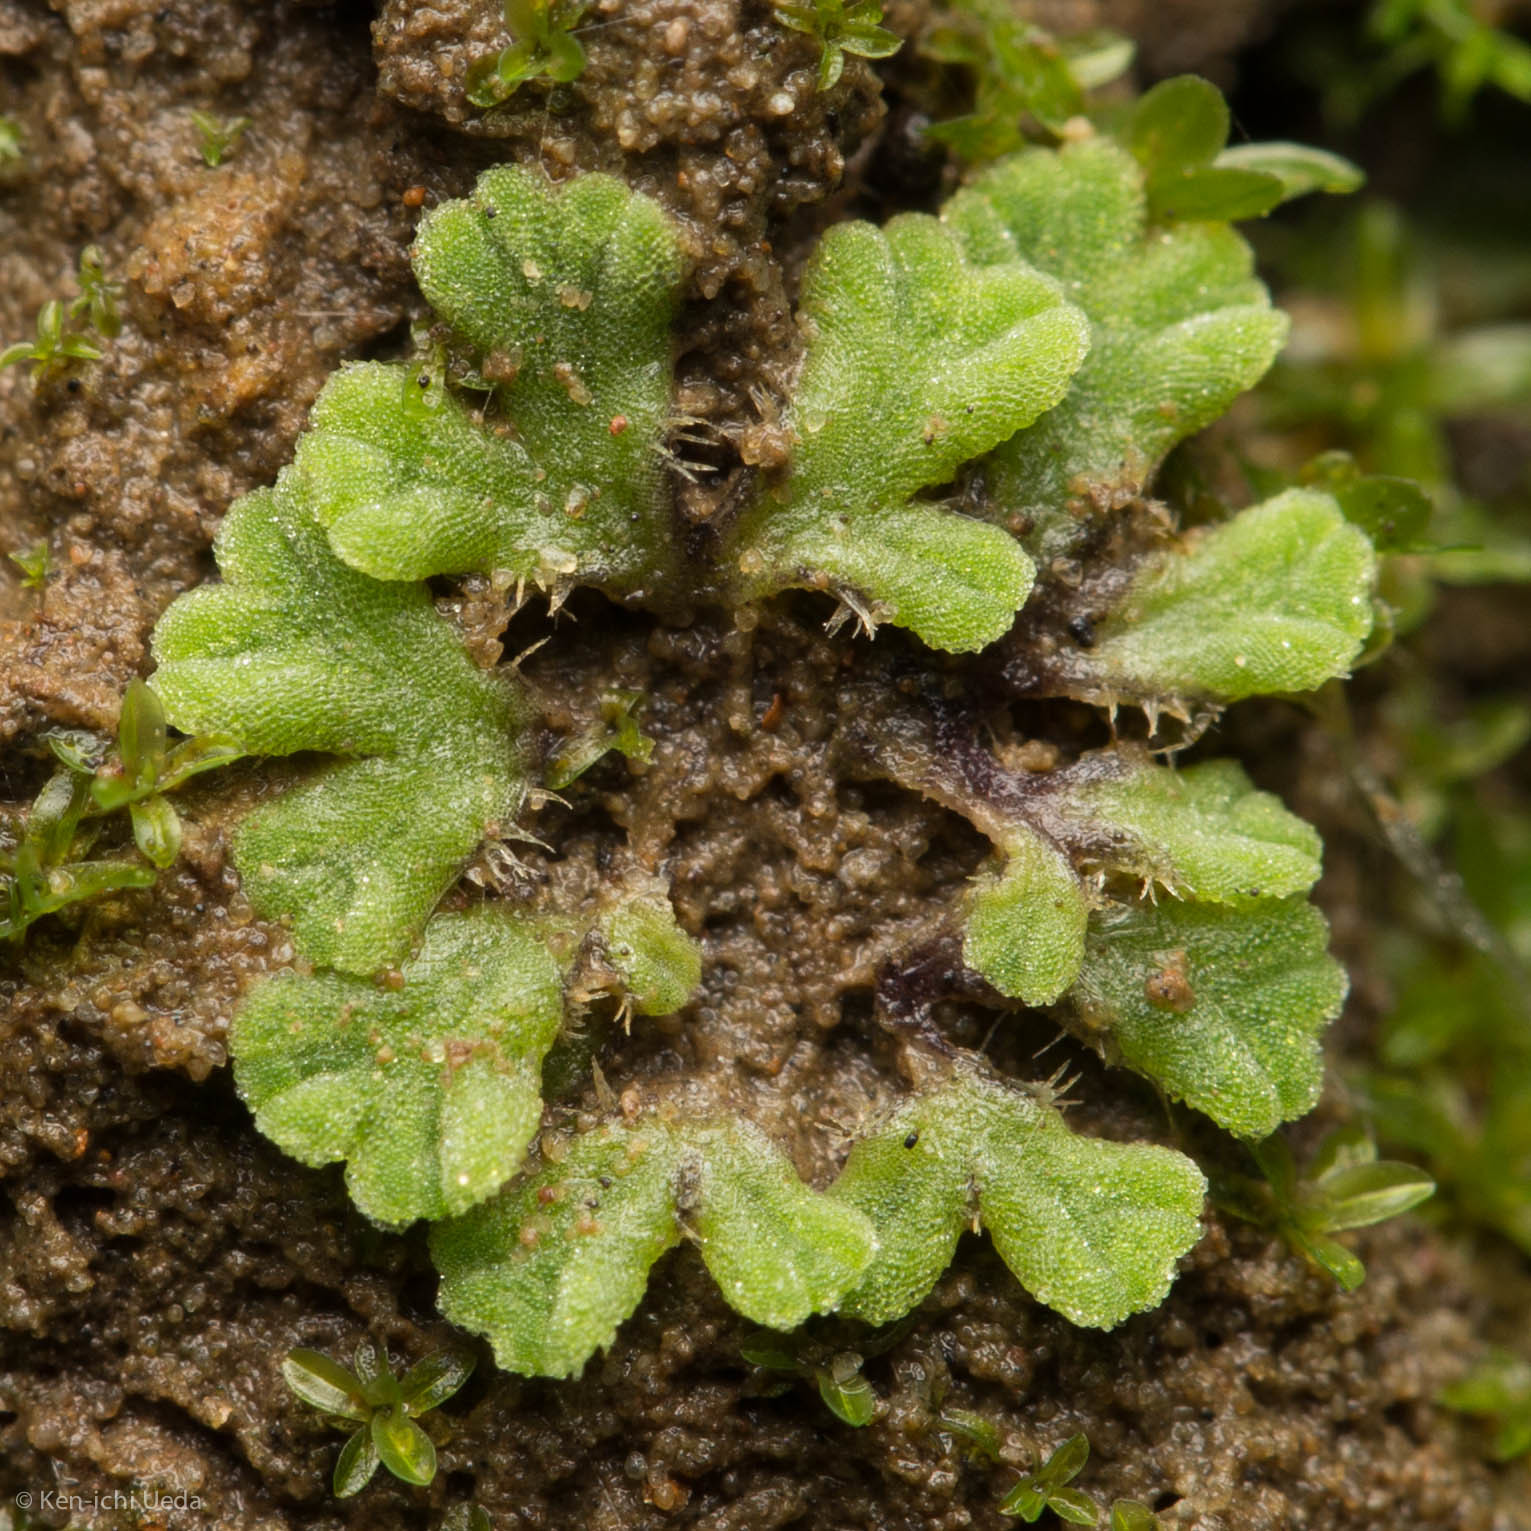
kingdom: Plantae
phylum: Marchantiophyta
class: Marchantiopsida
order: Marchantiales
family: Ricciaceae
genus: Riccia
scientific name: Riccia trichocarpa
